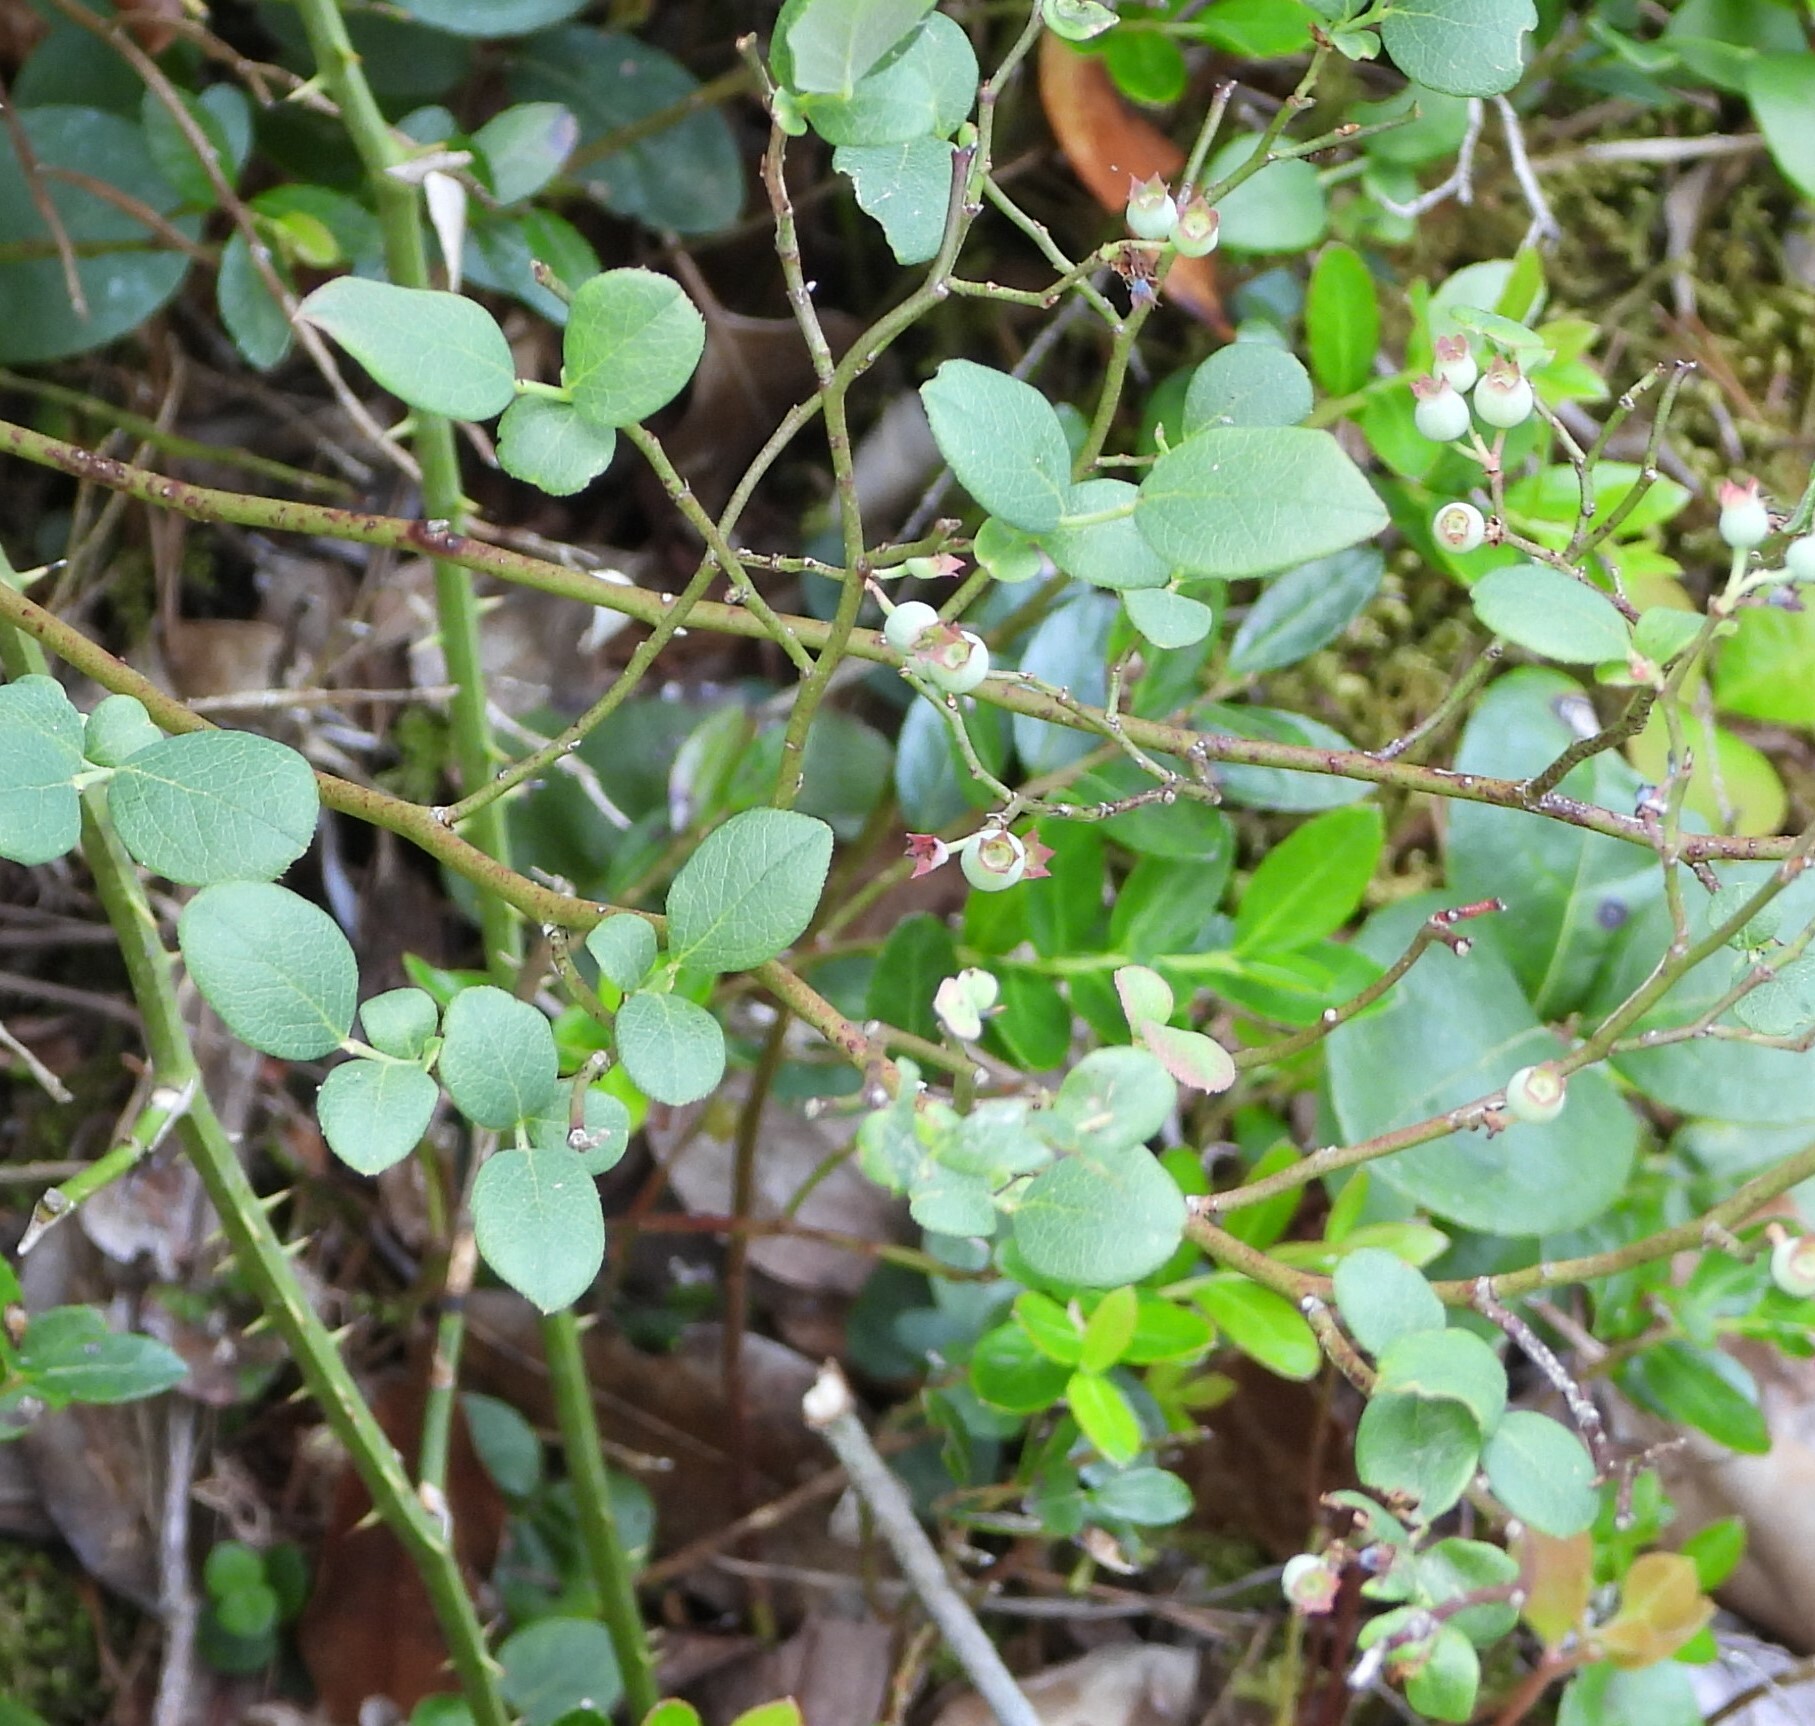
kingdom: Plantae
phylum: Tracheophyta
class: Magnoliopsida
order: Ericales
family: Ericaceae
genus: Vaccinium
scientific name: Vaccinium pallidum
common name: Blue ridge blueberry
